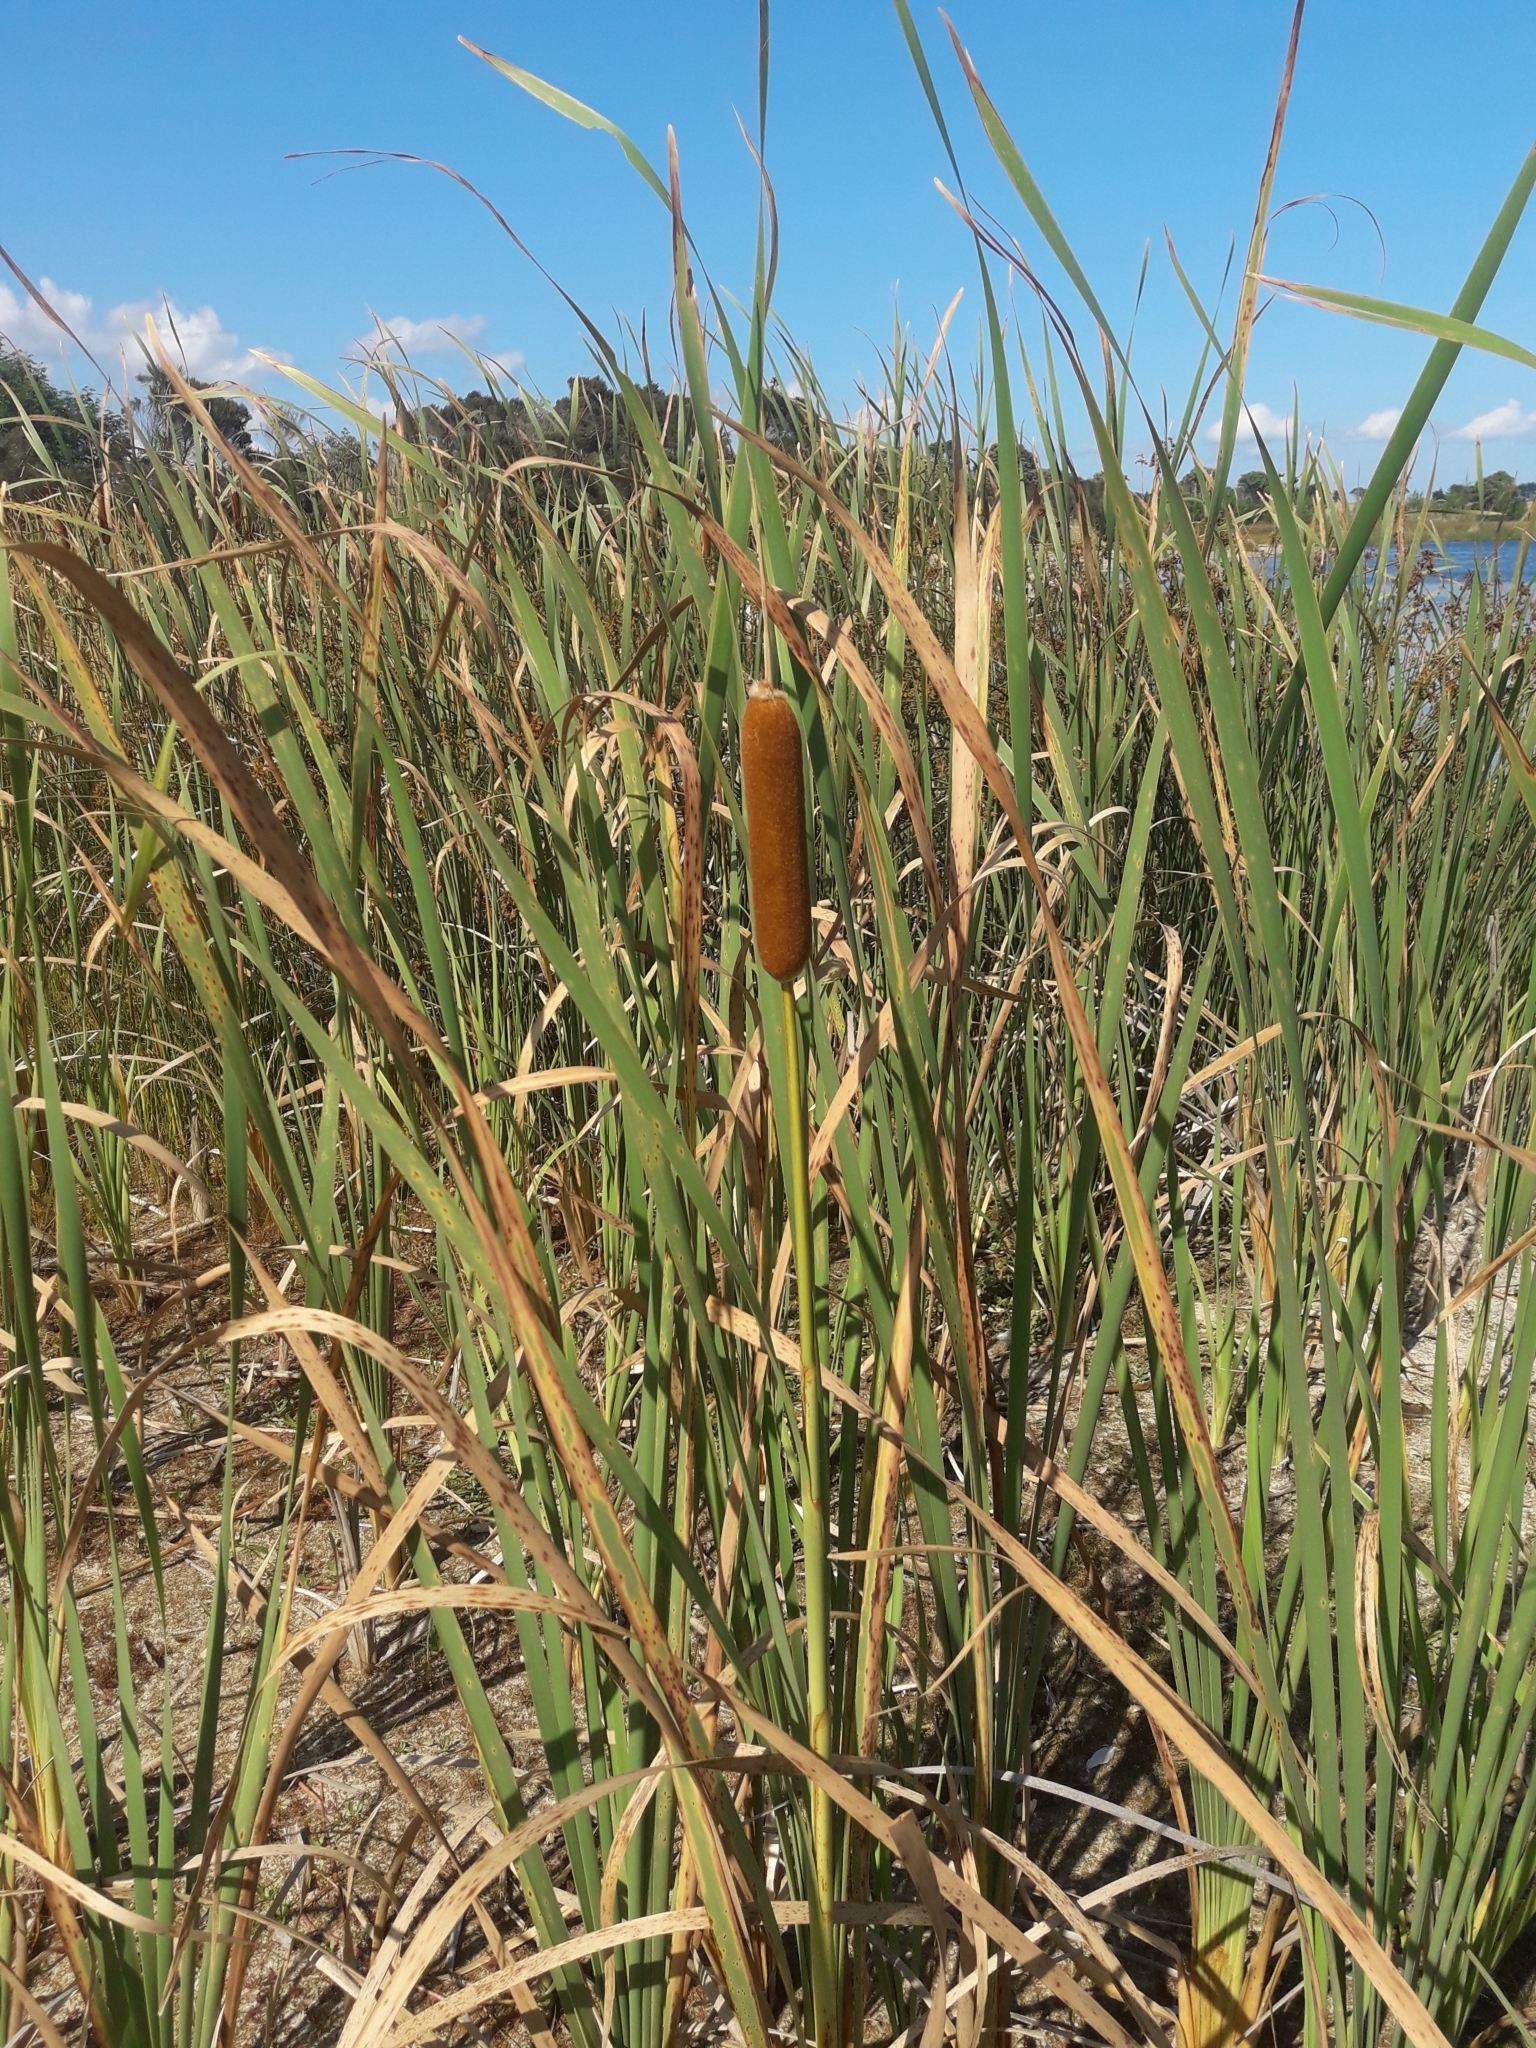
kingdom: Plantae
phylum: Tracheophyta
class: Liliopsida
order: Poales
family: Typhaceae
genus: Typha
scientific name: Typha orientalis
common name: Bullrush
